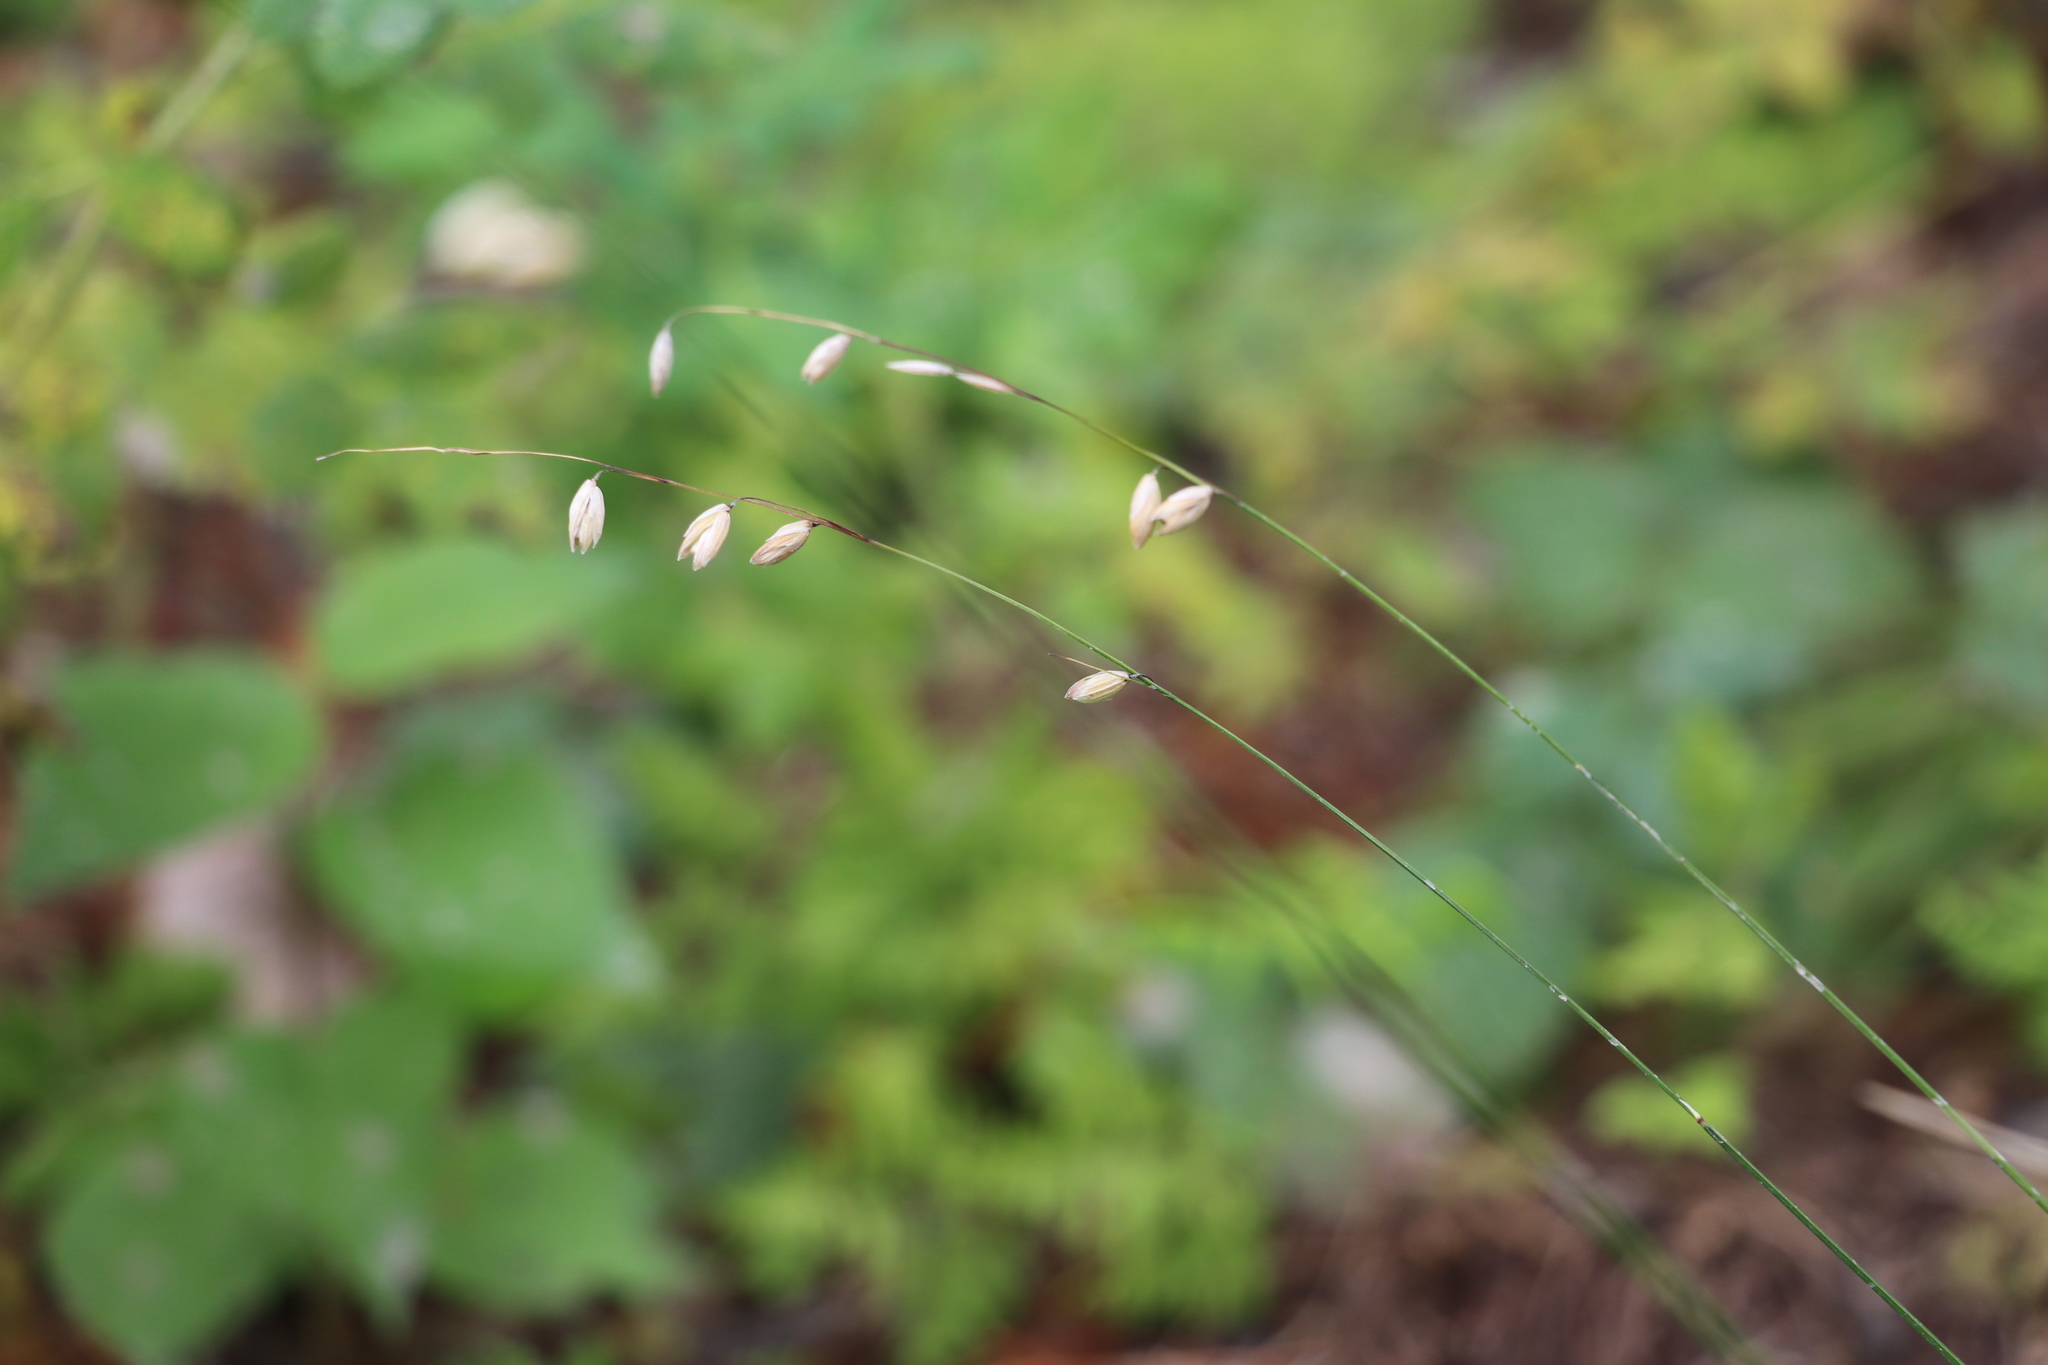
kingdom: Plantae
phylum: Tracheophyta
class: Liliopsida
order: Poales
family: Poaceae
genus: Melica
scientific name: Melica nutans
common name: Mountain melick
